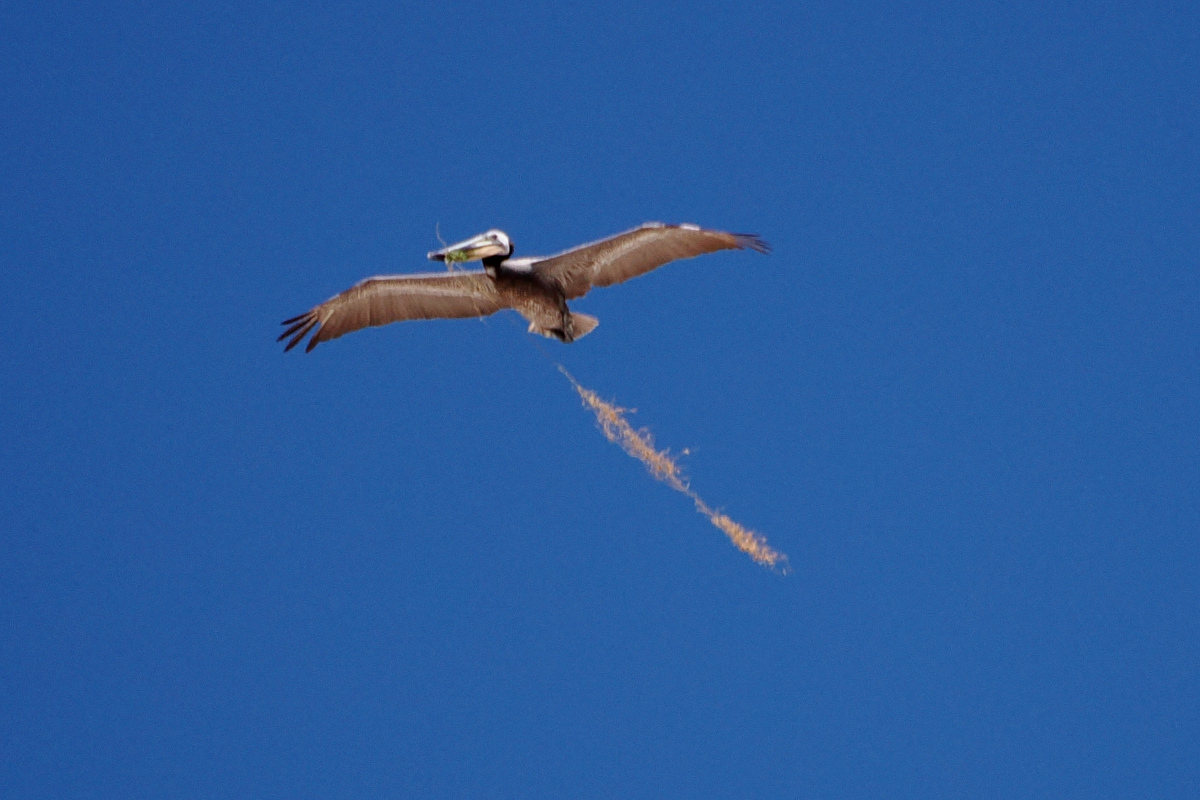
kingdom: Animalia
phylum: Chordata
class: Aves
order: Pelecaniformes
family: Pelecanidae
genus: Pelecanus
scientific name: Pelecanus occidentalis
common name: Brown pelican
